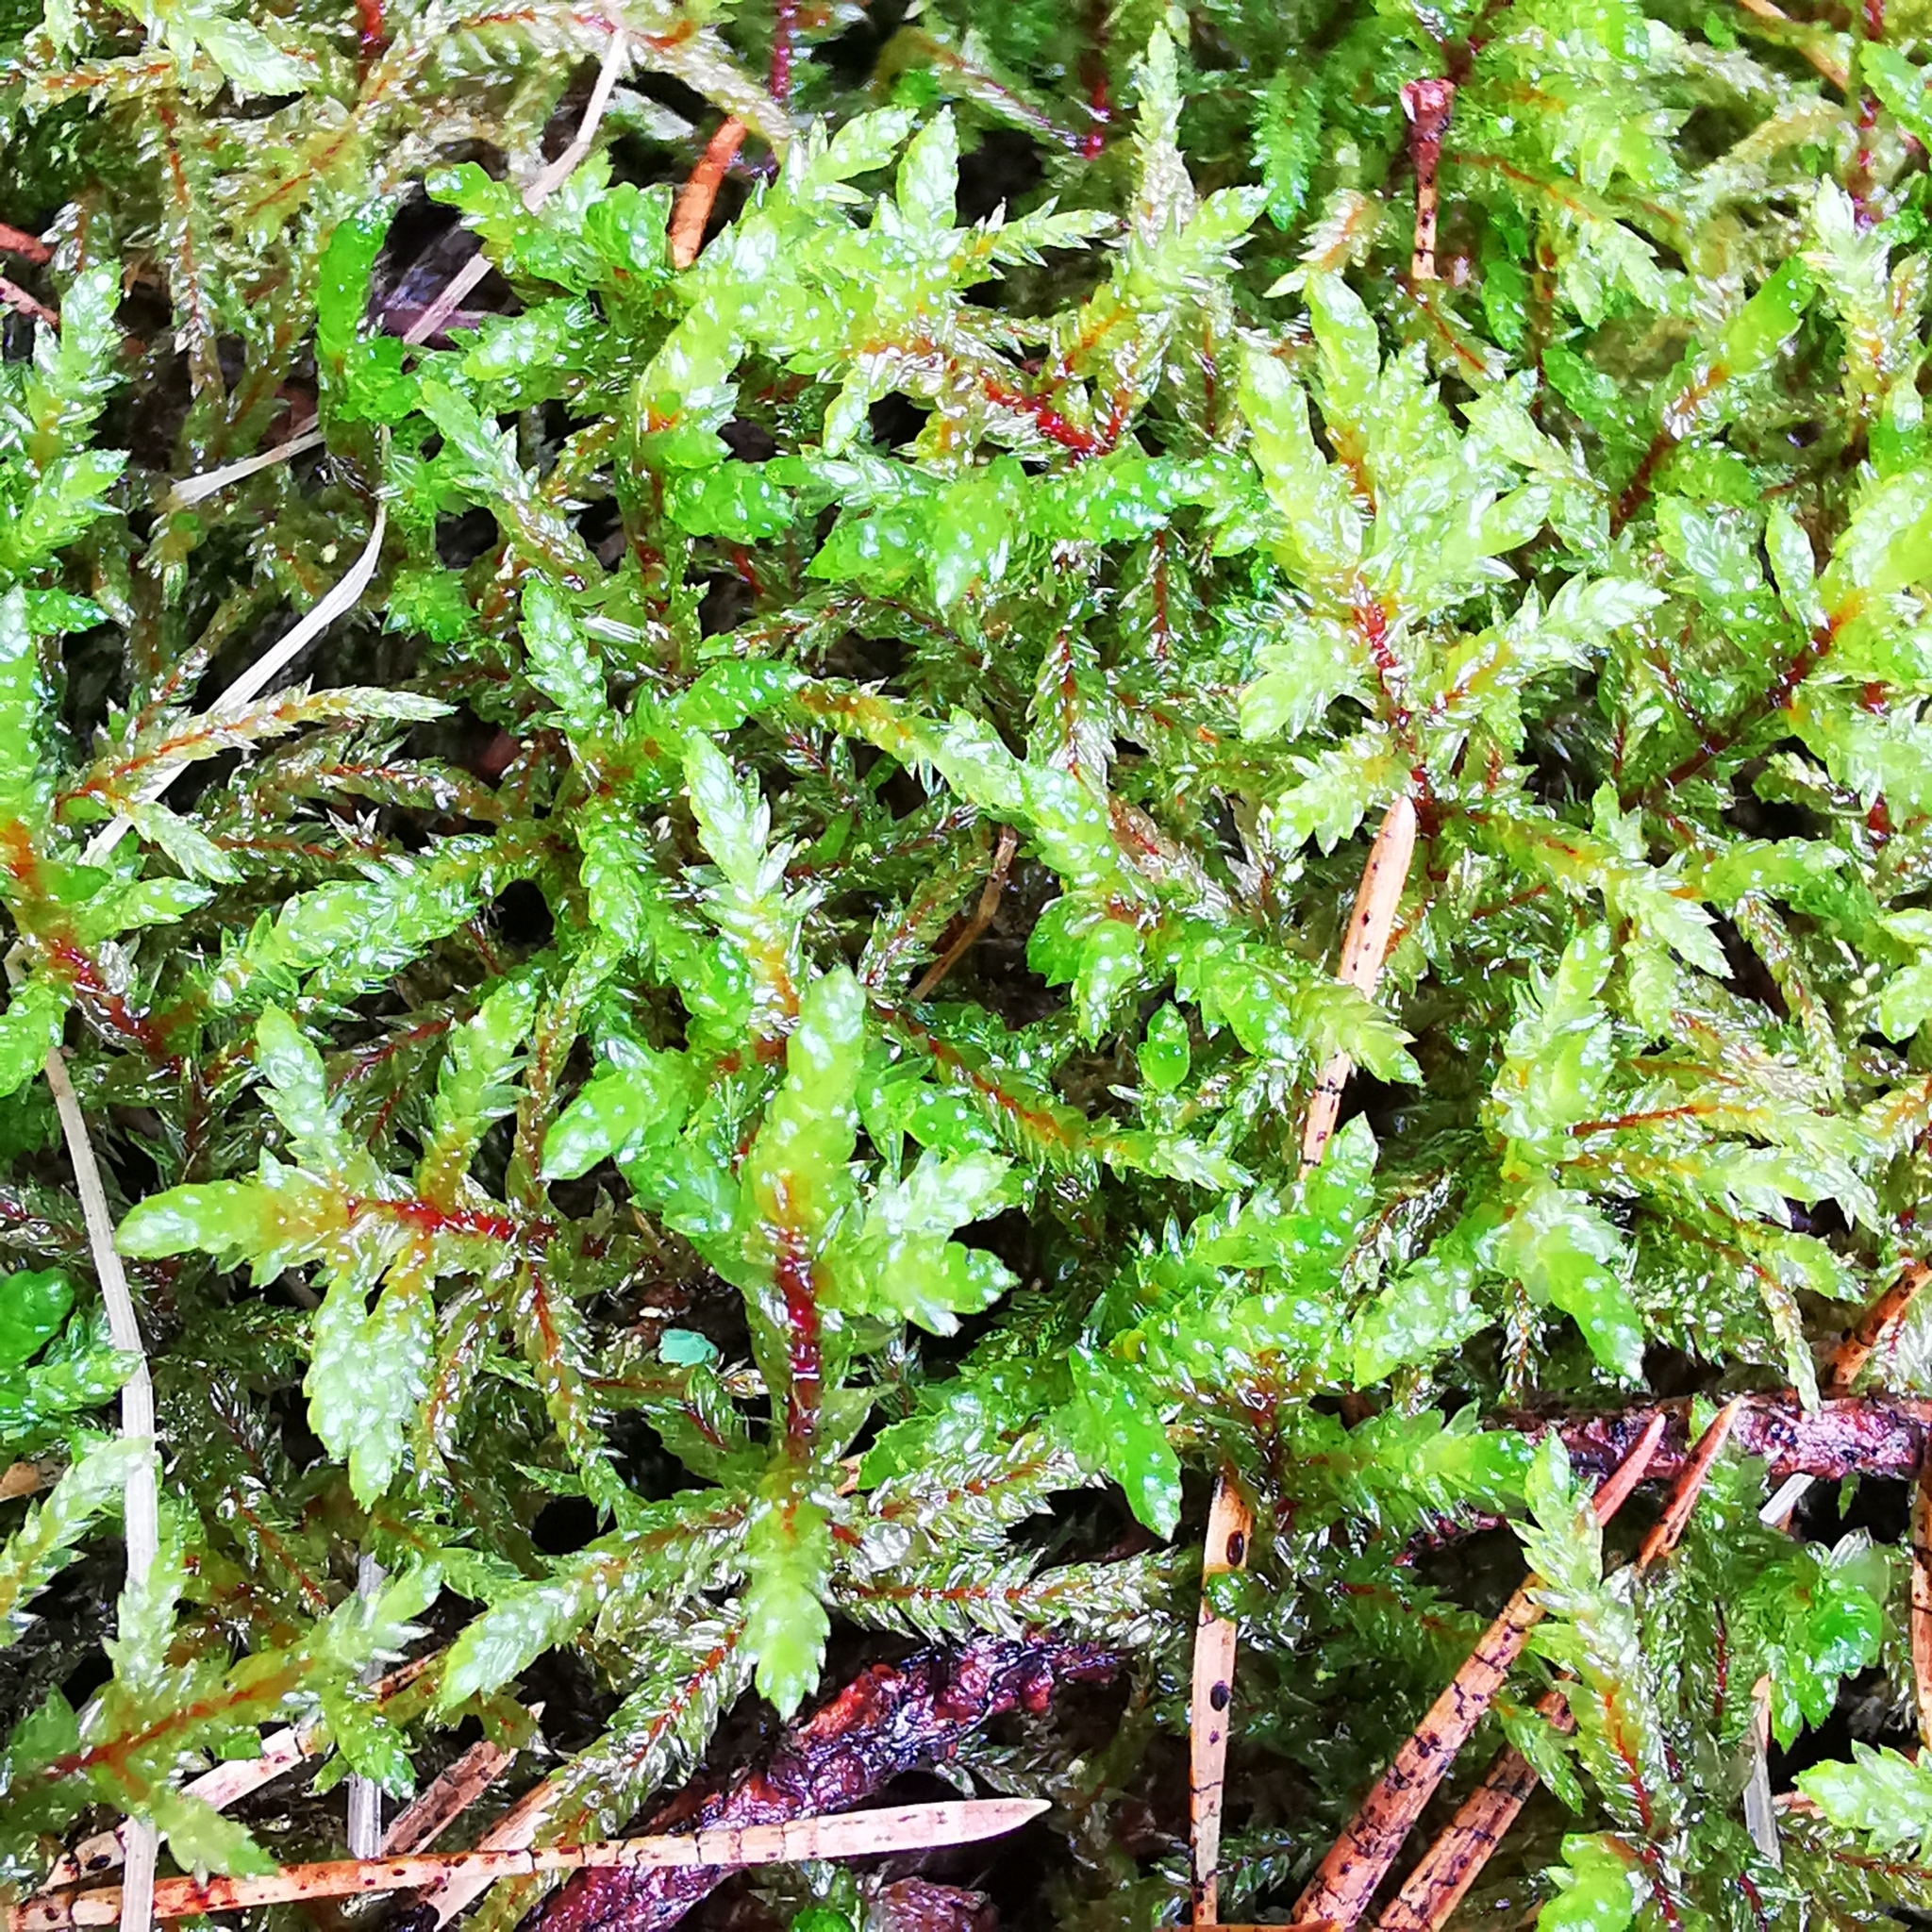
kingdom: Plantae
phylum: Bryophyta
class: Bryopsida
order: Hypnales
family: Hylocomiaceae
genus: Pleurozium
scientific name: Pleurozium schreberi
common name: Red-stemmed feather moss
